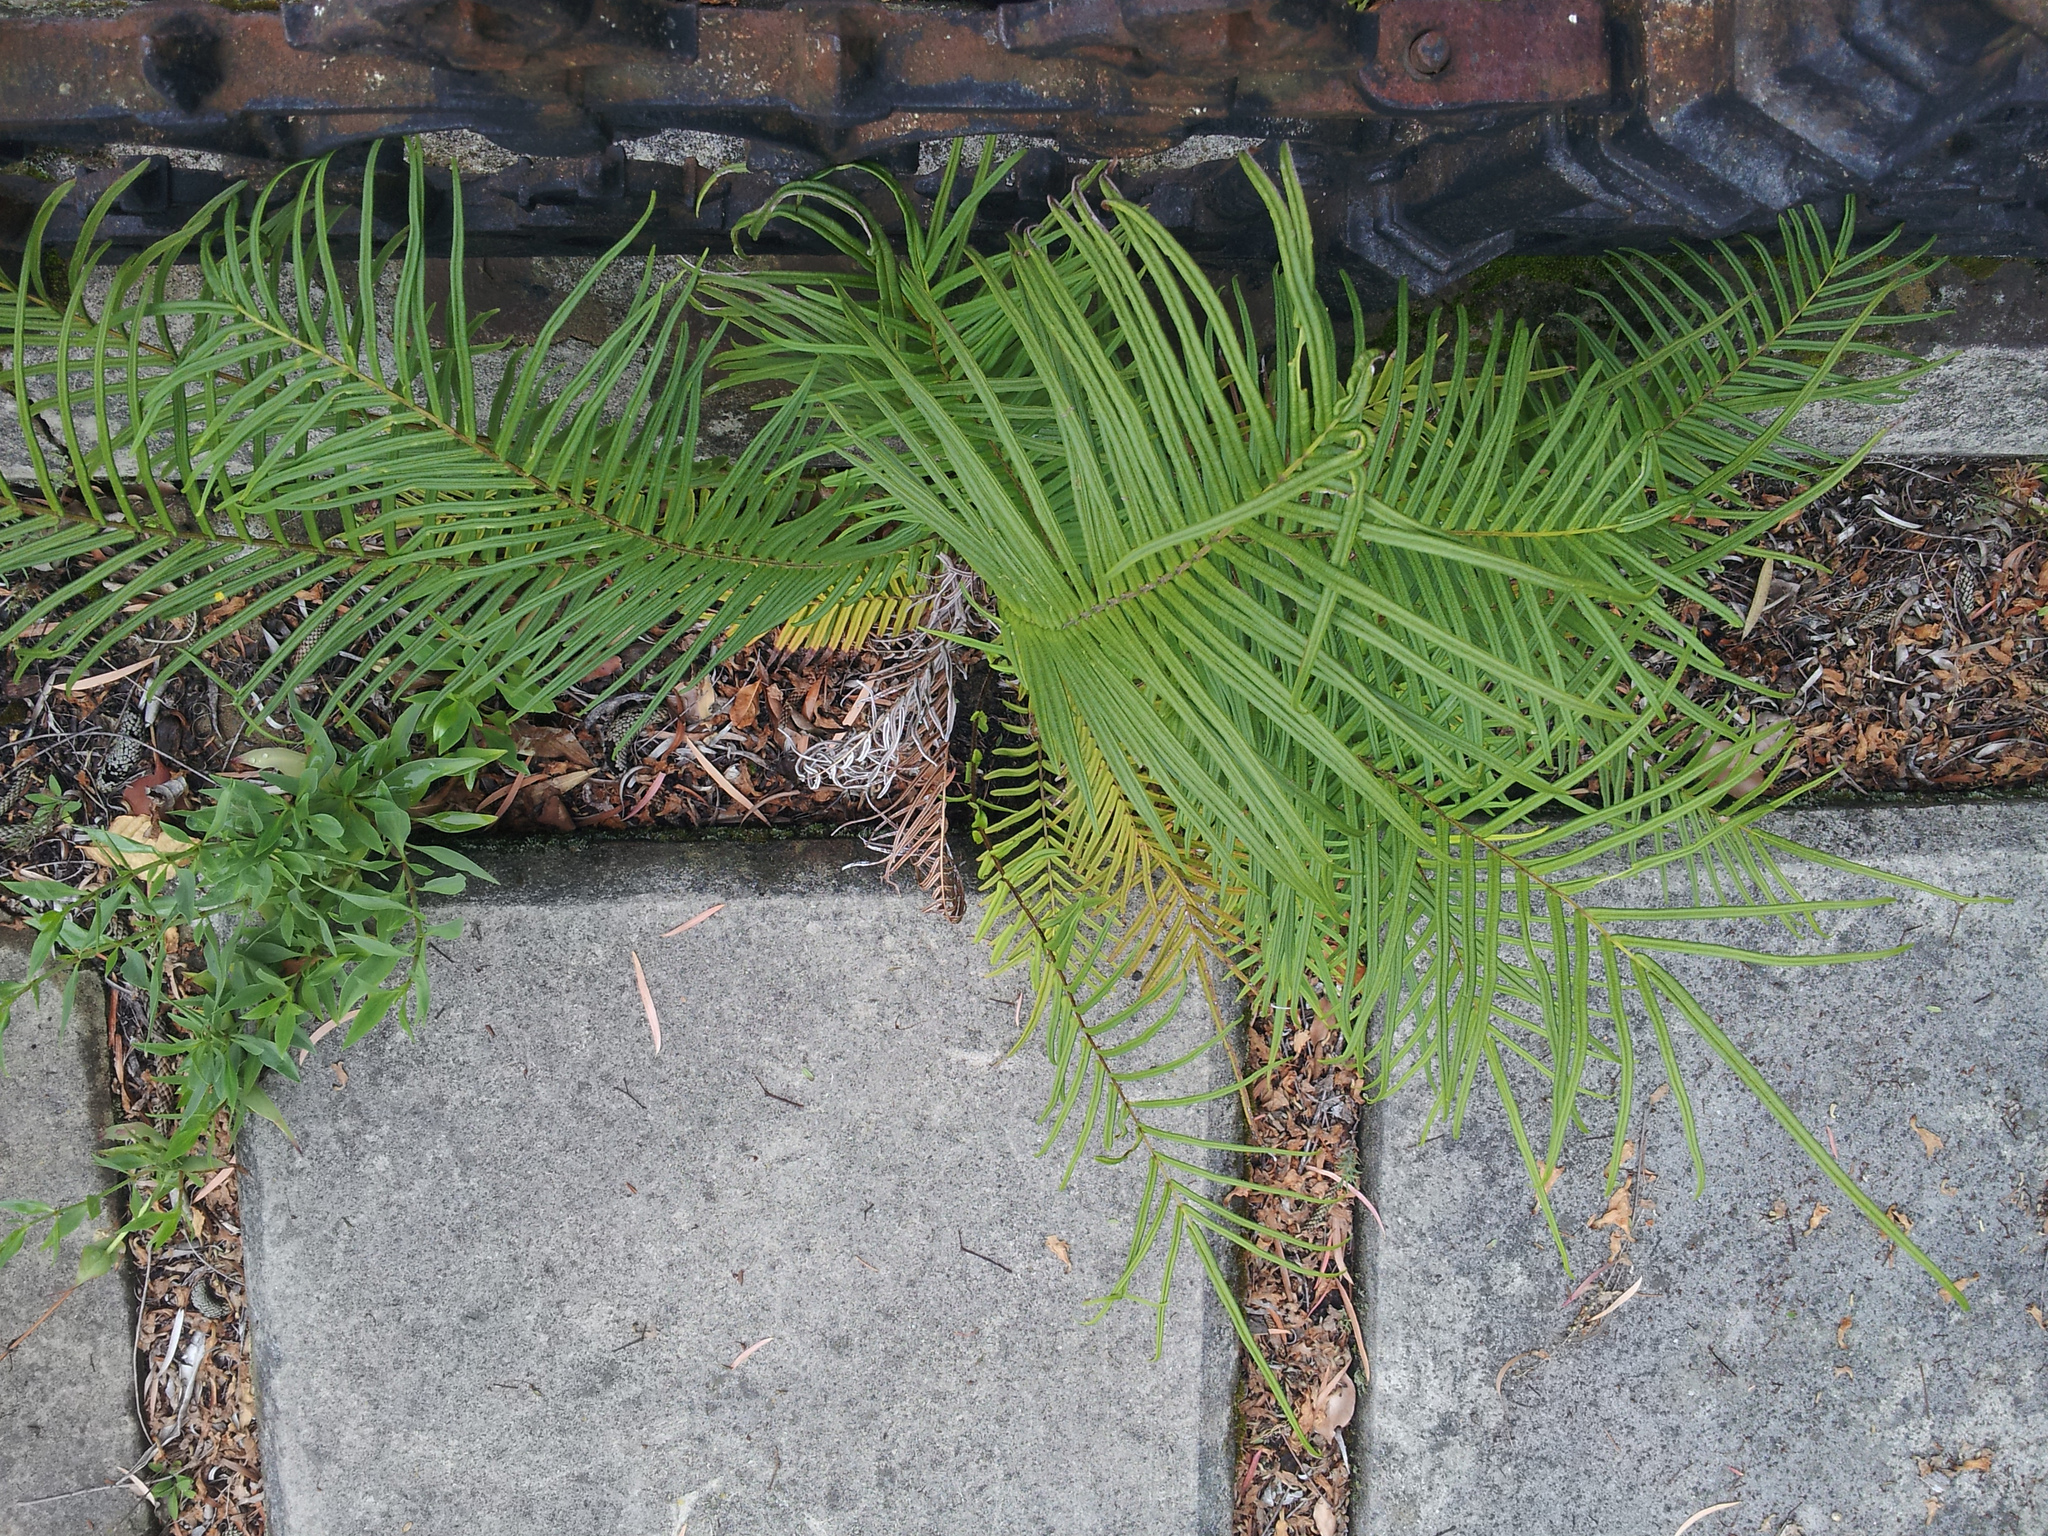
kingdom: Plantae
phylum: Tracheophyta
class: Polypodiopsida
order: Polypodiales
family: Pteridaceae
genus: Pteris
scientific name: Pteris vittata
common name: Ladder brake
